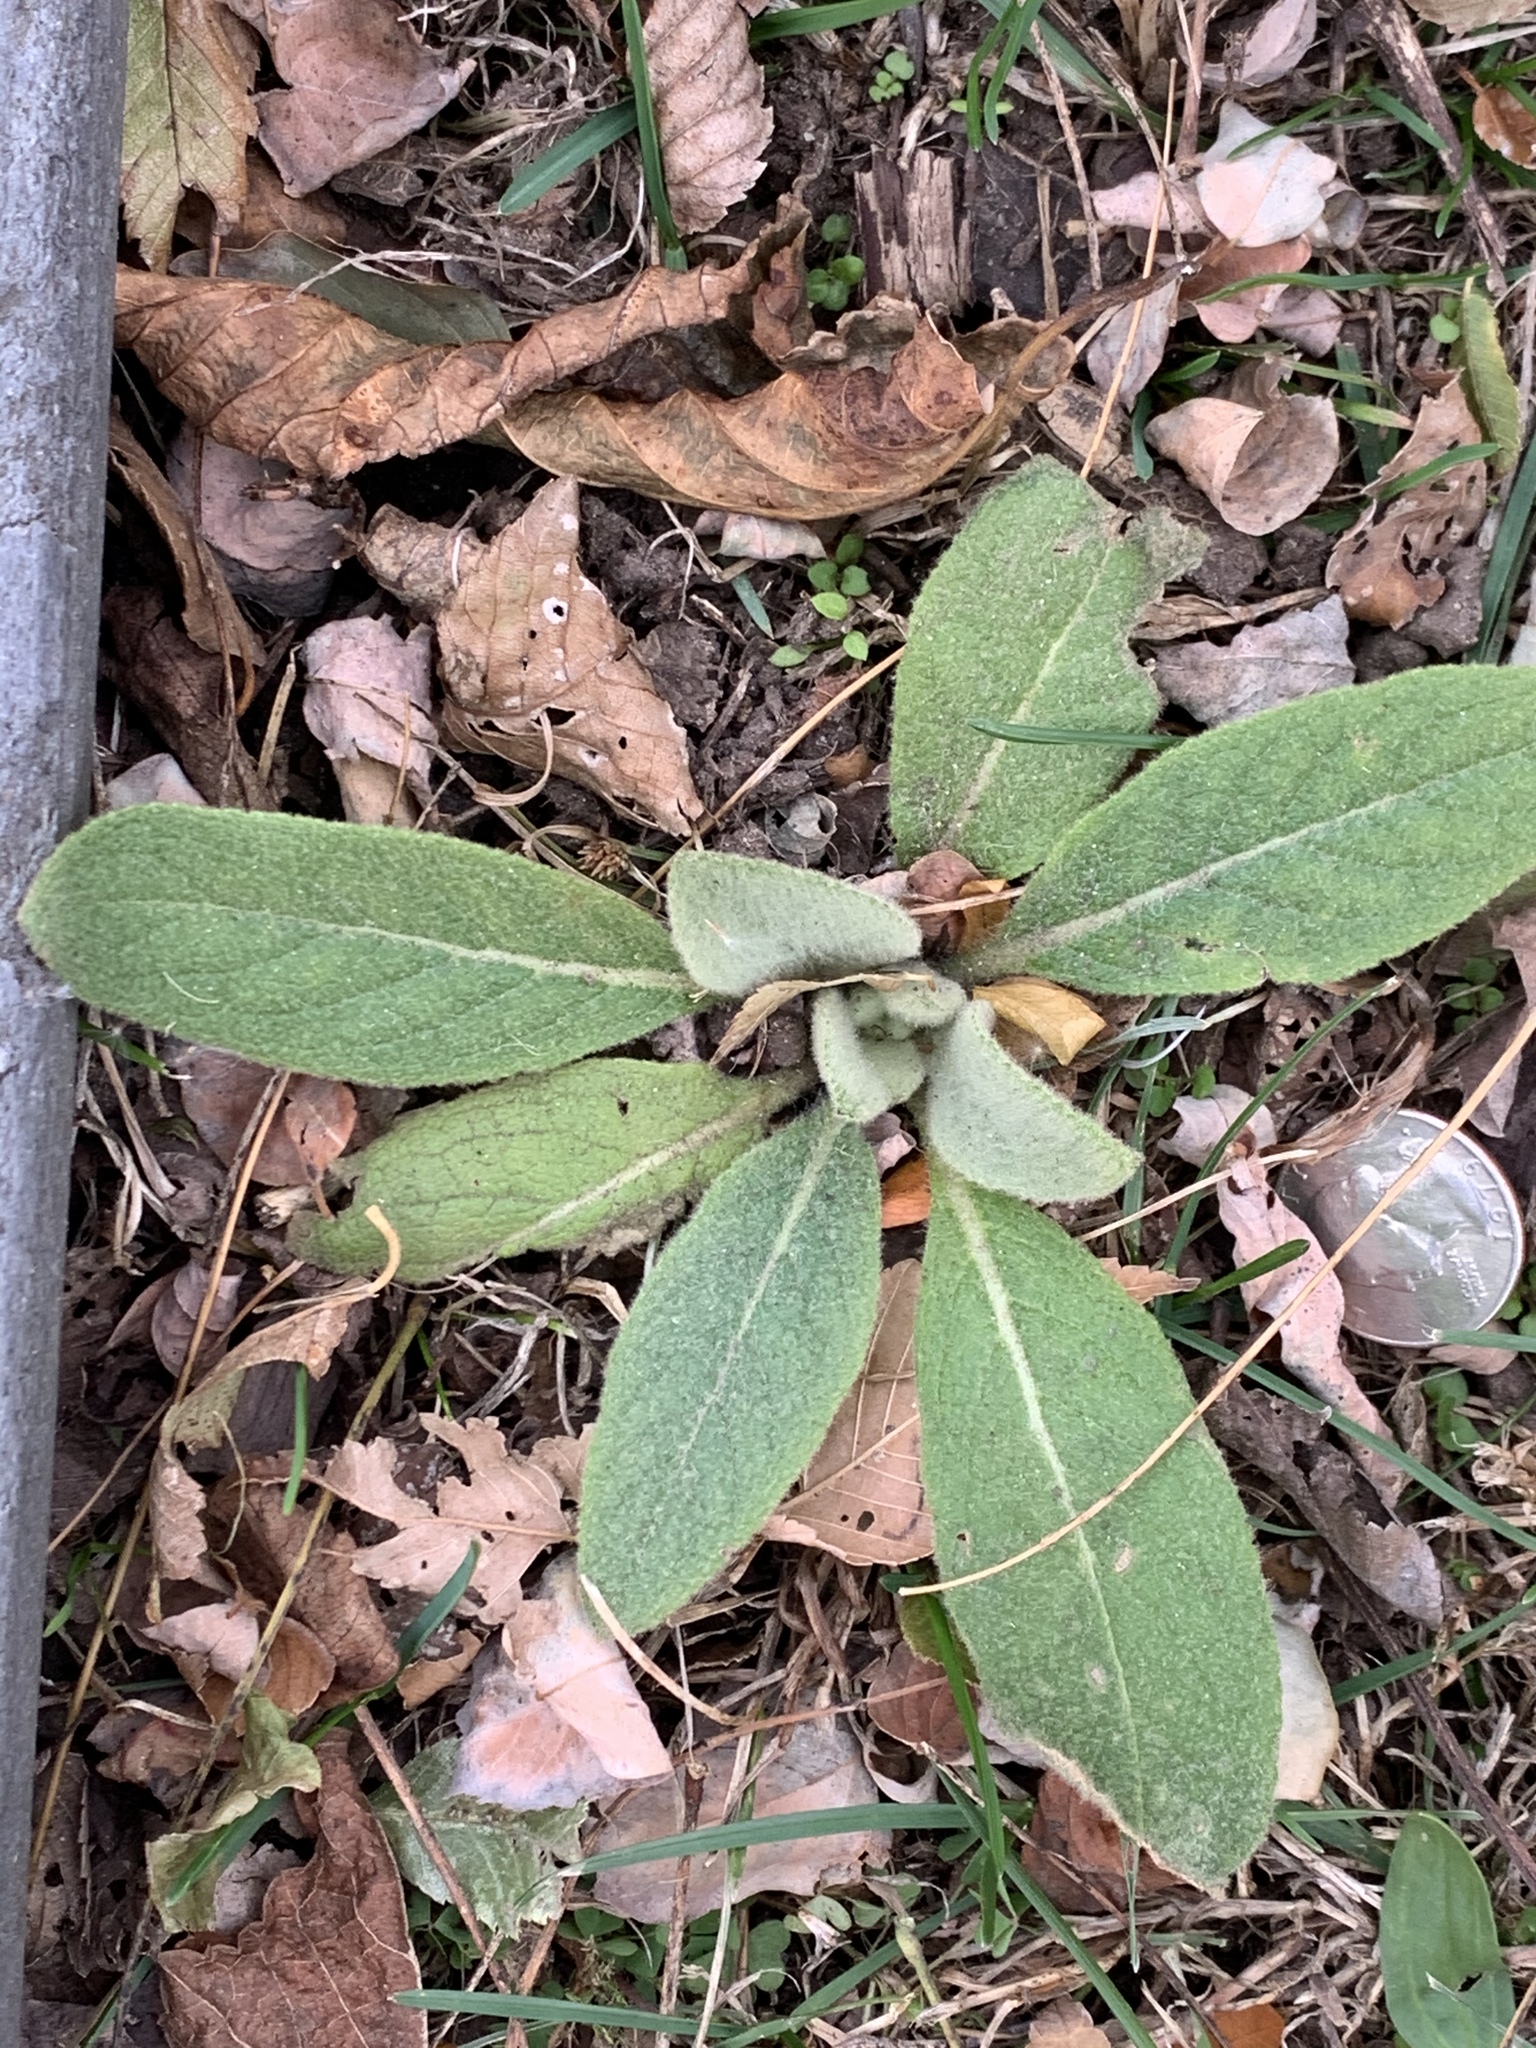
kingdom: Plantae
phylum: Tracheophyta
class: Magnoliopsida
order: Lamiales
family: Scrophulariaceae
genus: Verbascum
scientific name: Verbascum thapsus
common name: Common mullein
